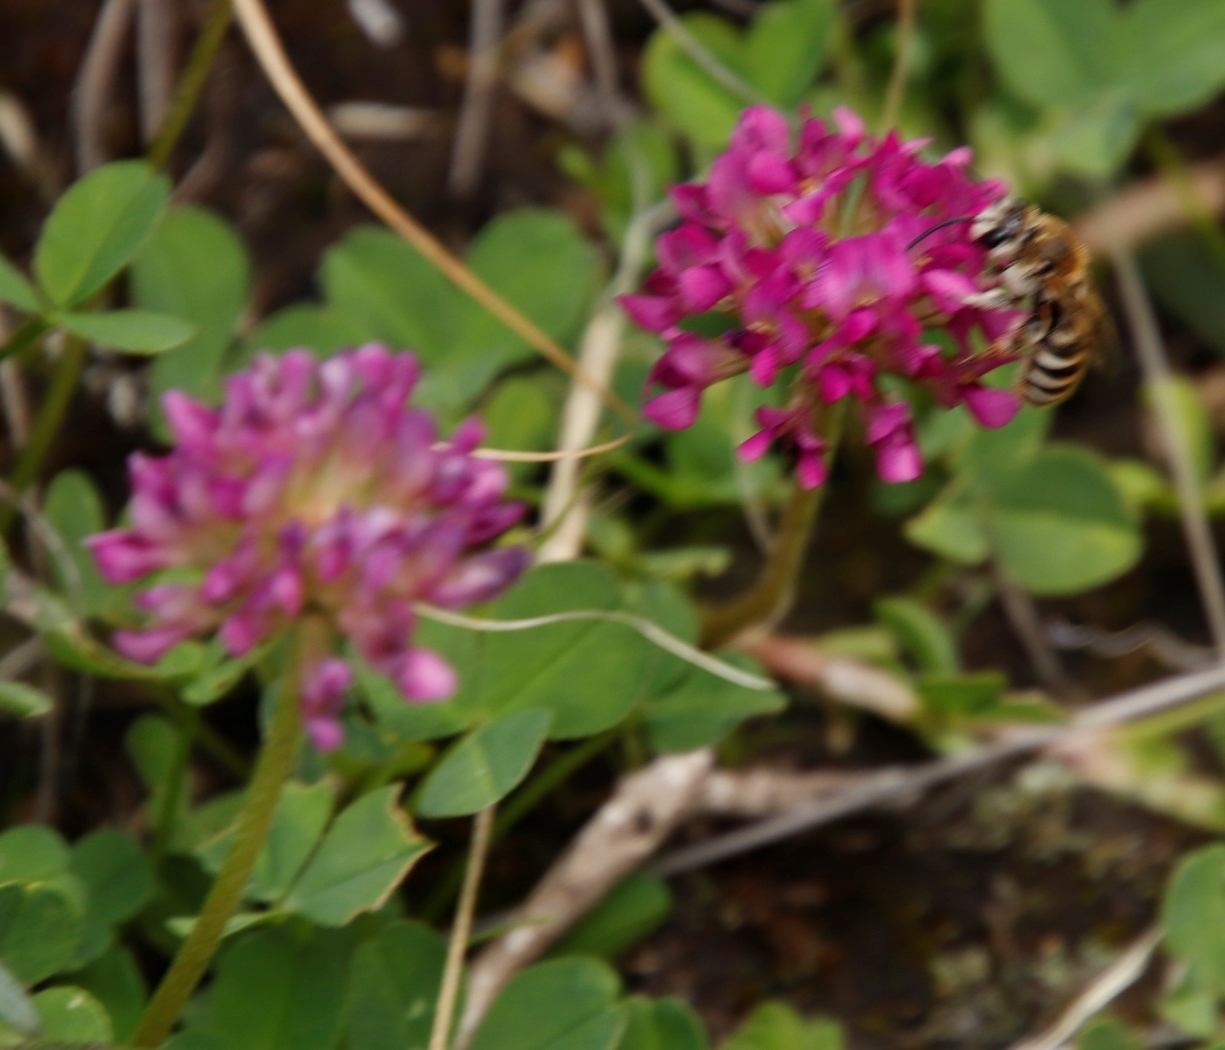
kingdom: Plantae
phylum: Tracheophyta
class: Magnoliopsida
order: Fabales
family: Fabaceae
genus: Trifolium
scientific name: Trifolium burchellianum
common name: Burchell's clover
